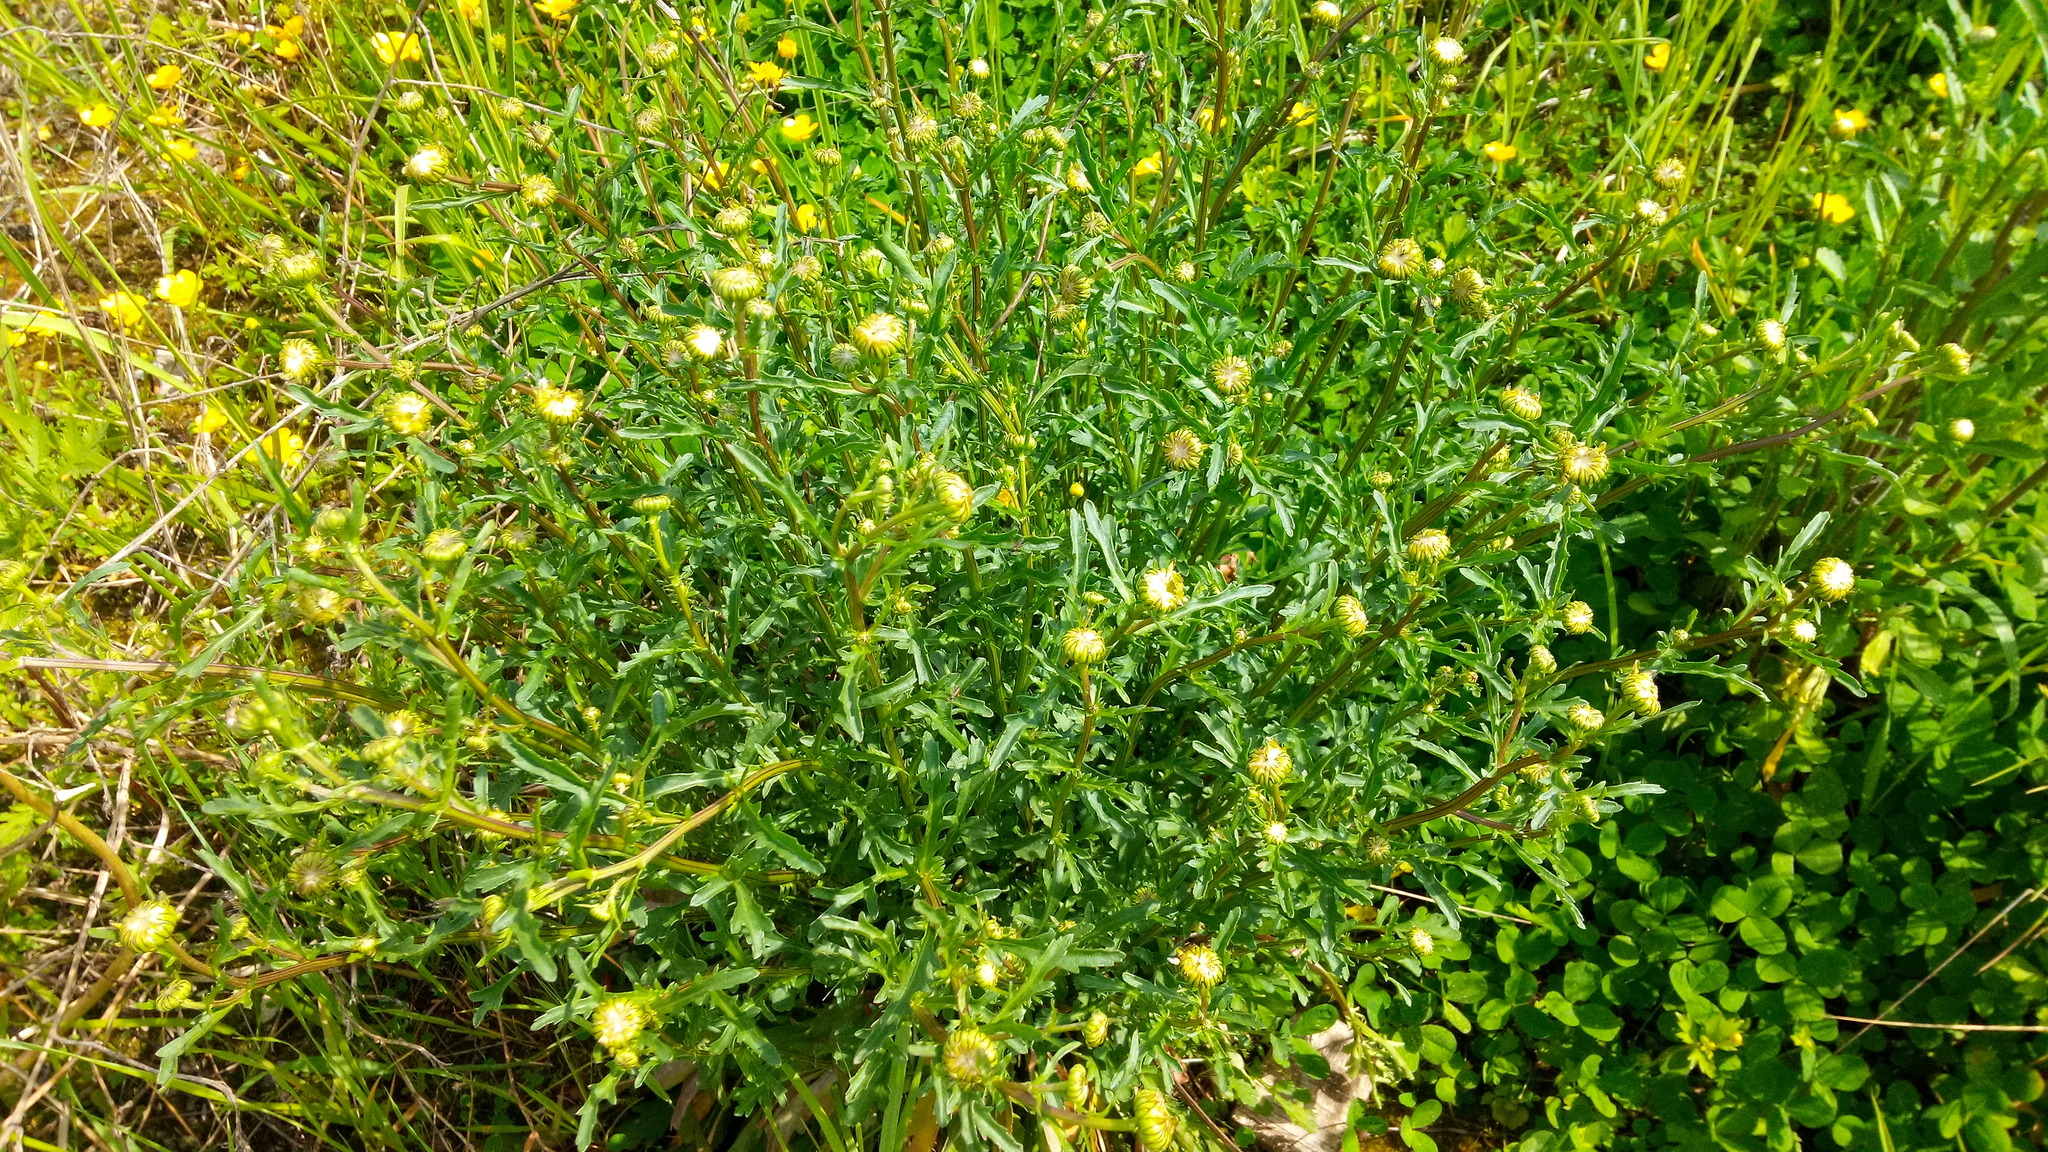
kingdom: Plantae
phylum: Tracheophyta
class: Magnoliopsida
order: Asterales
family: Asteraceae
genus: Leucanthemum
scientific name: Leucanthemum vulgare
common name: Oxeye daisy
